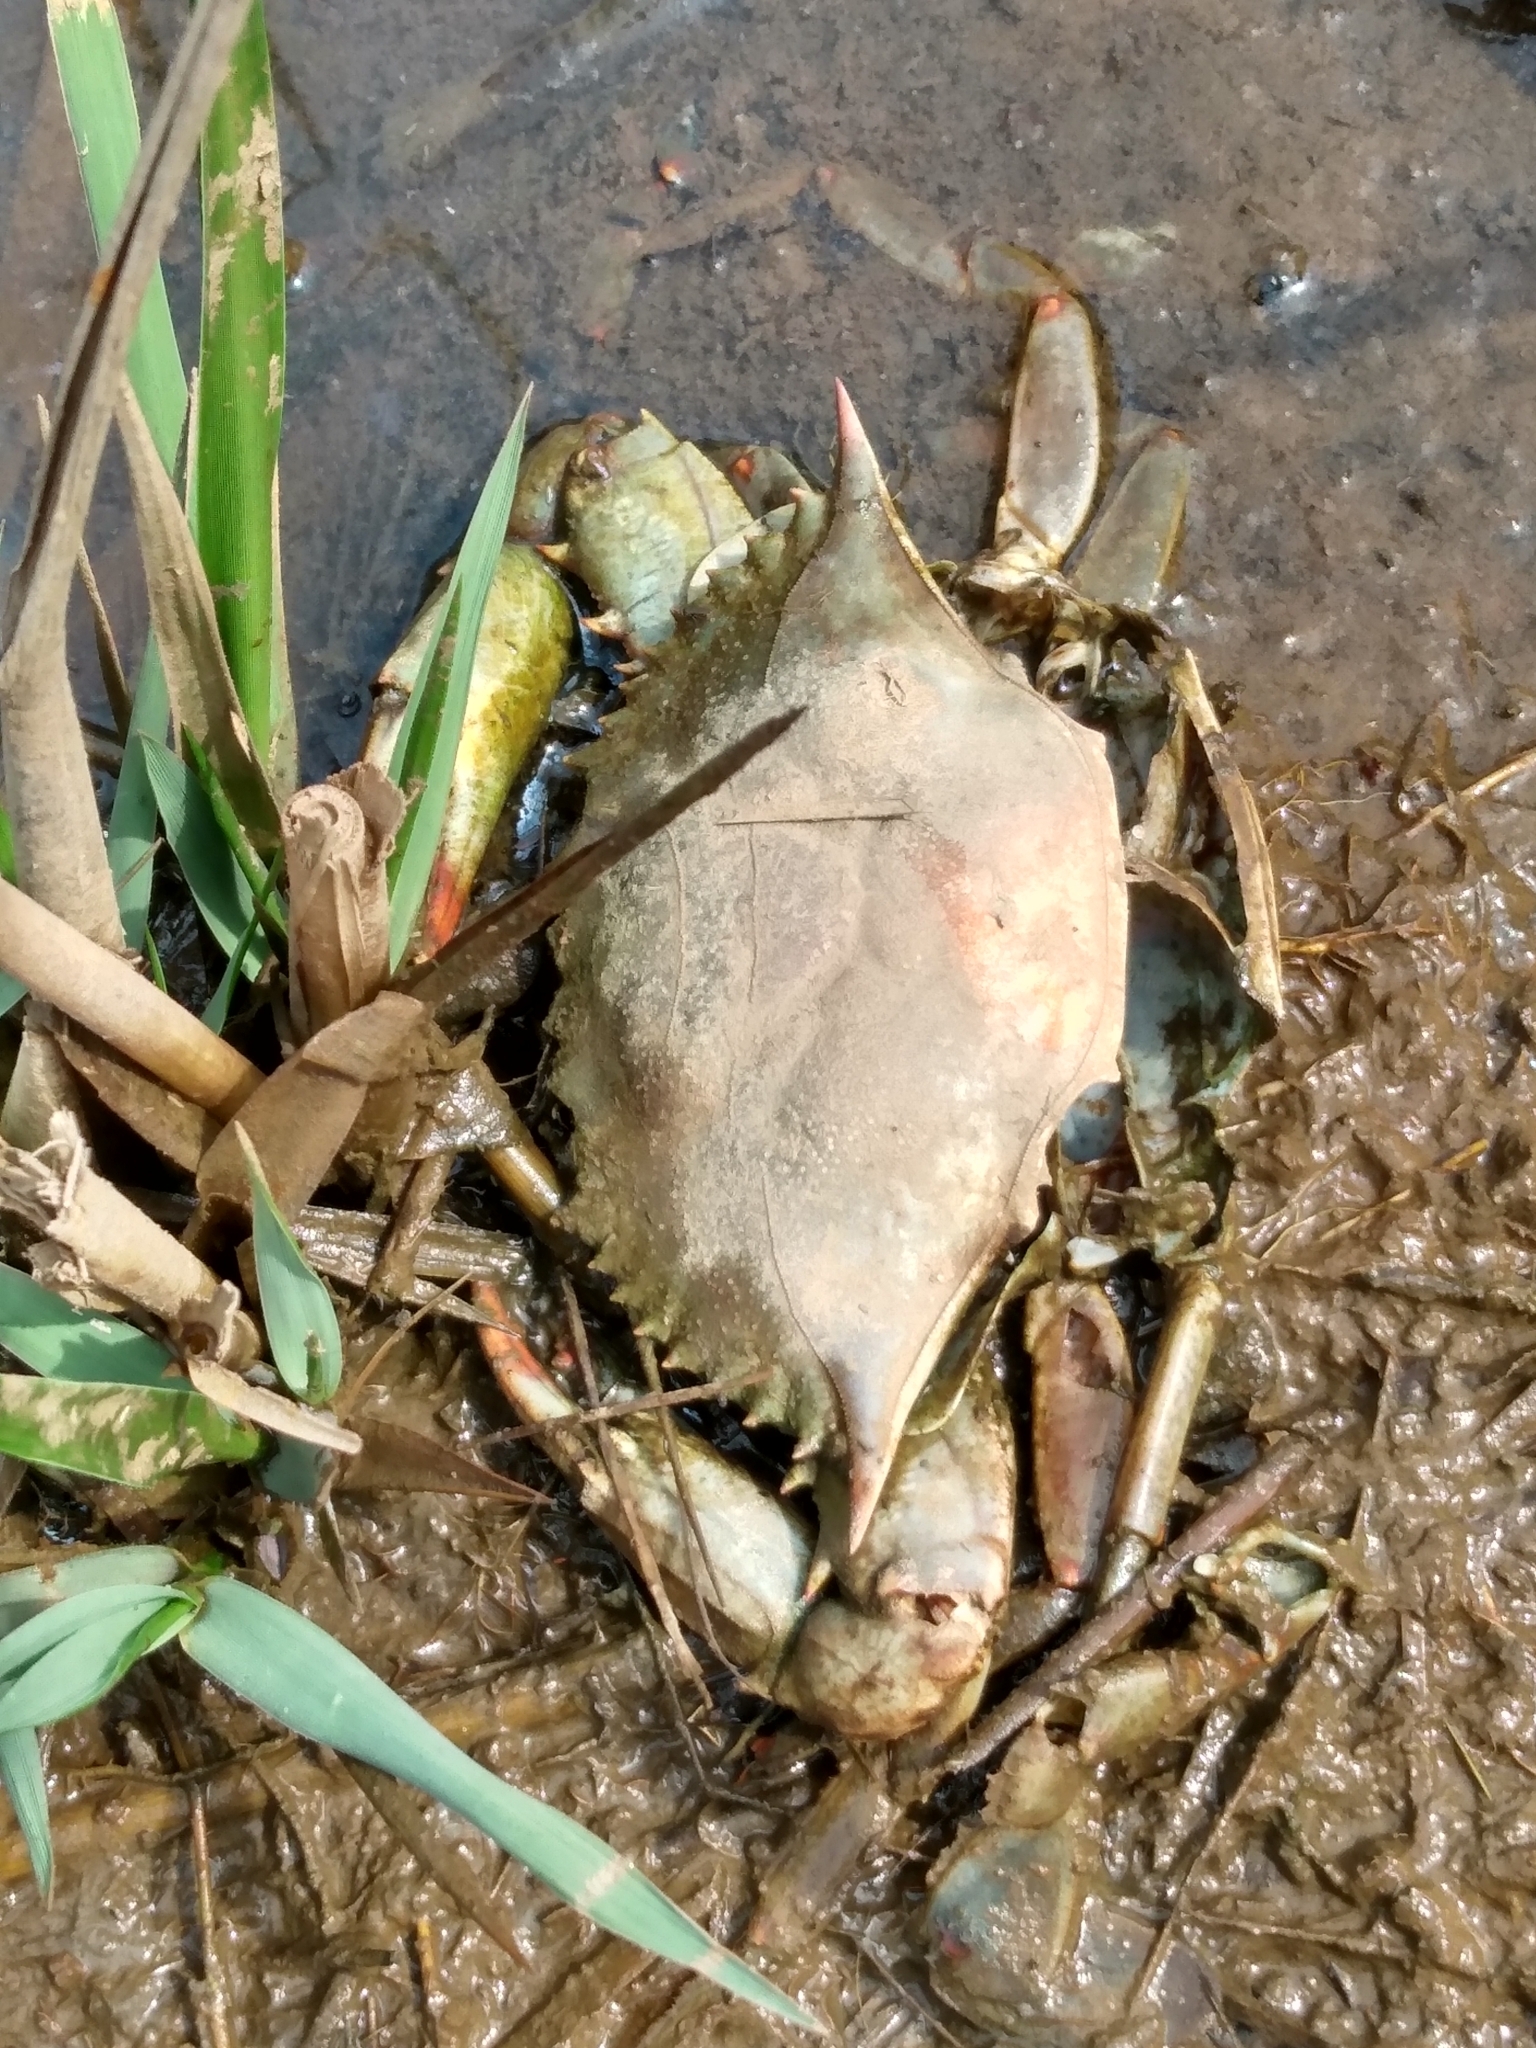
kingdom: Animalia
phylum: Arthropoda
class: Malacostraca
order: Decapoda
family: Portunidae
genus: Callinectes
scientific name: Callinectes sapidus
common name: Blue crab
